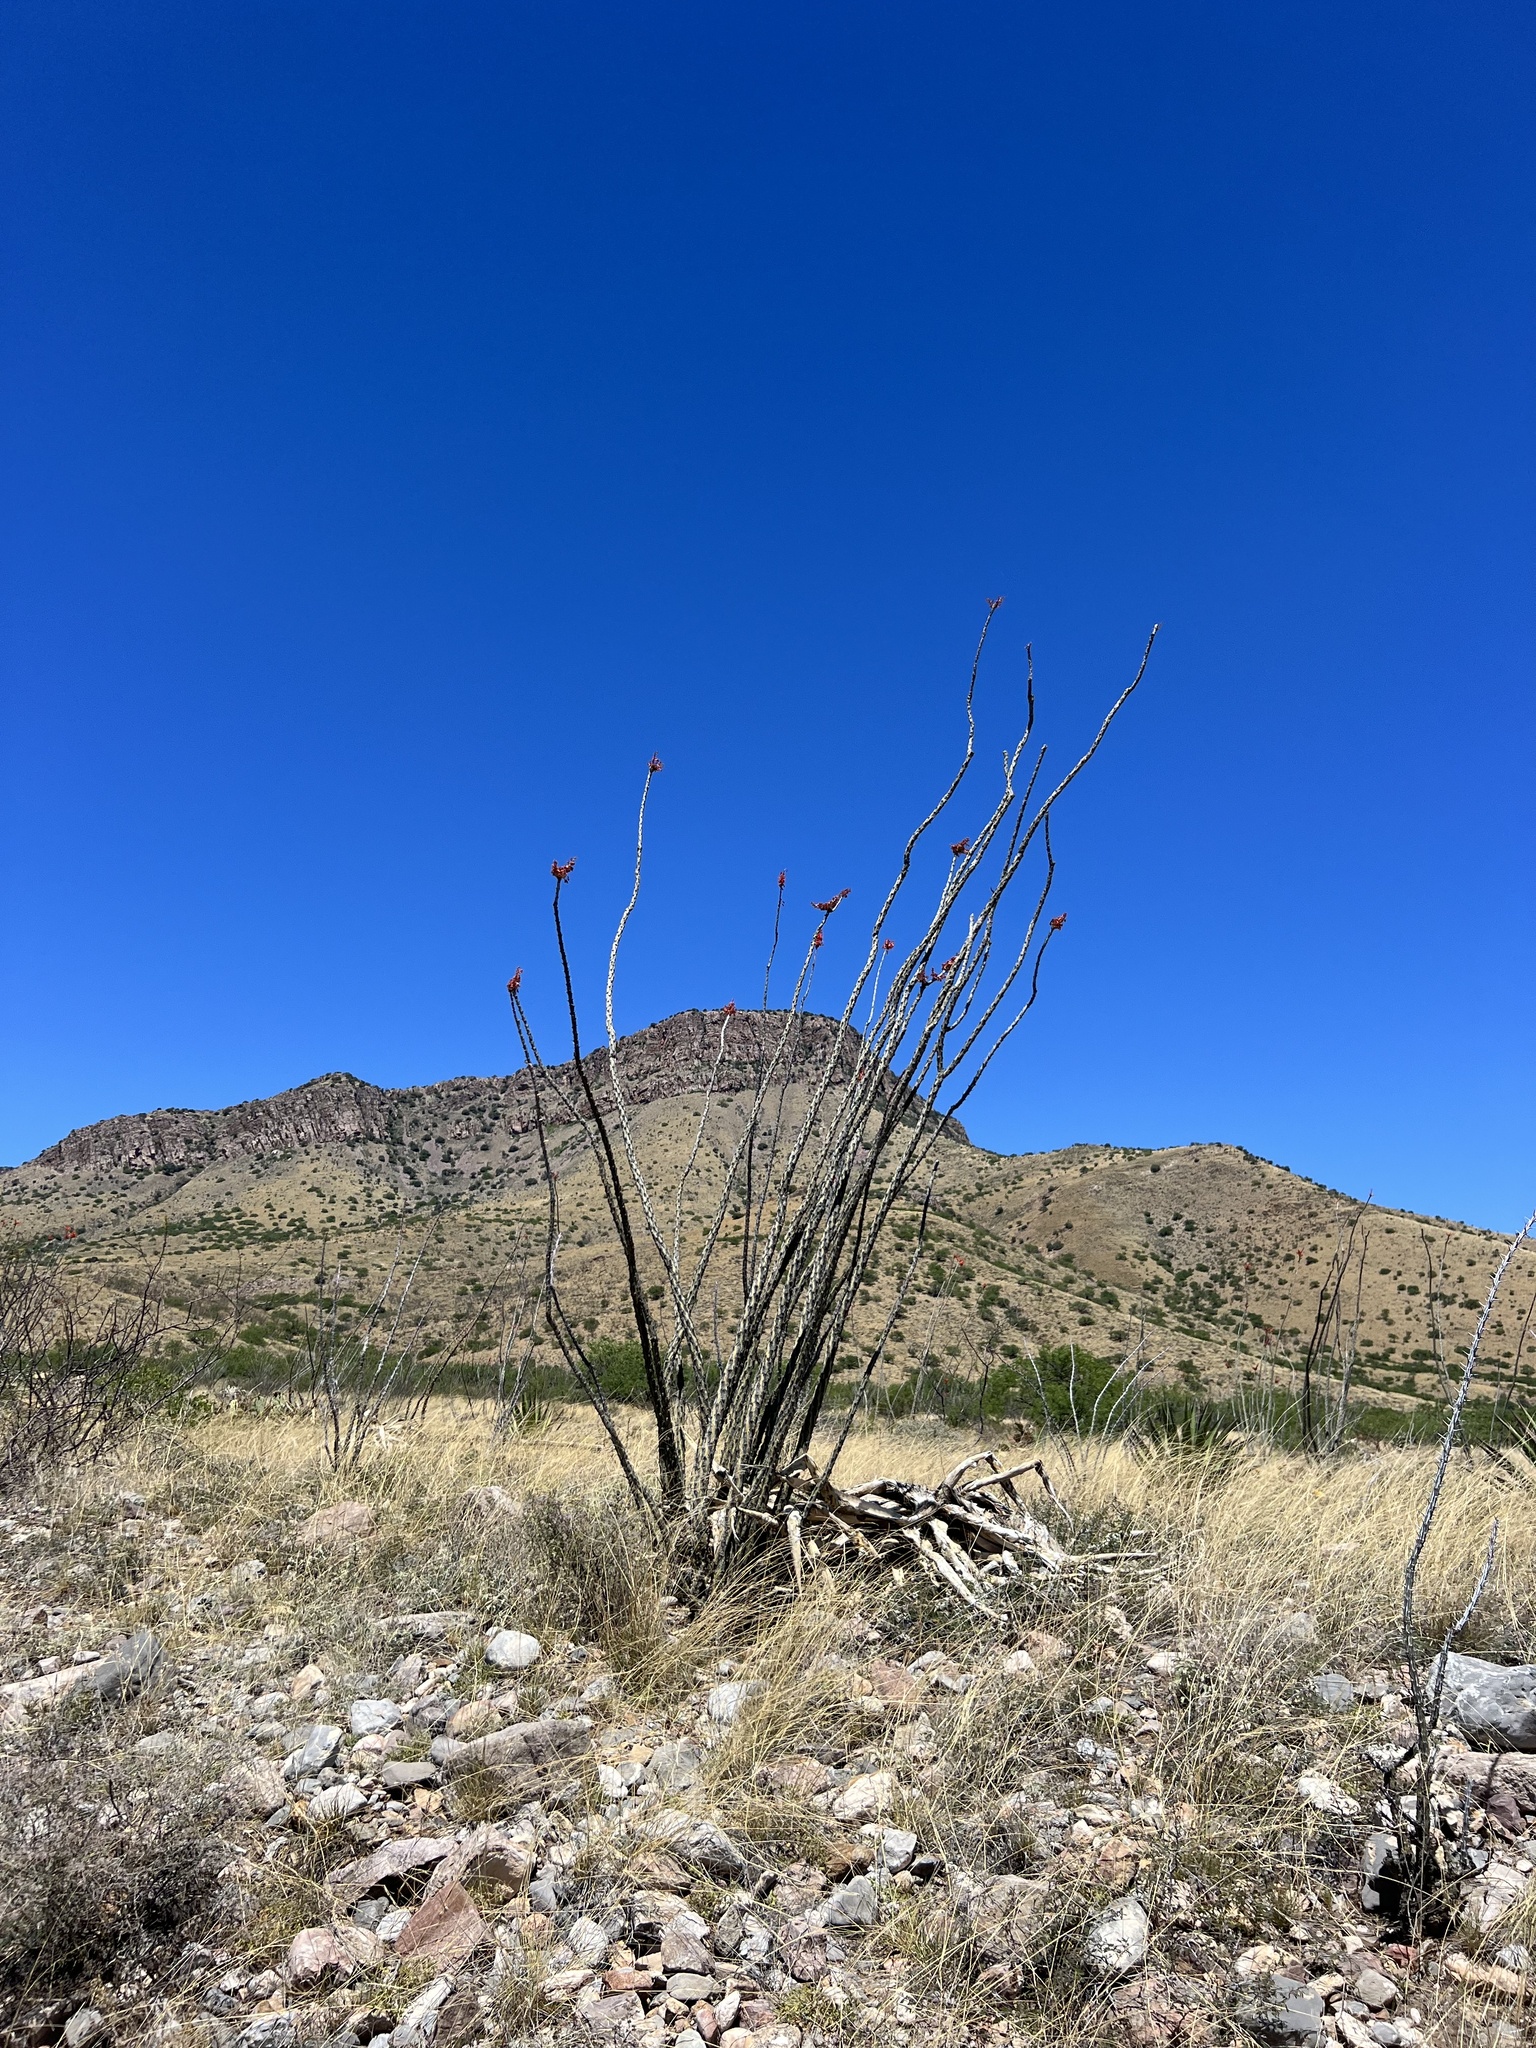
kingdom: Plantae
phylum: Tracheophyta
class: Magnoliopsida
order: Ericales
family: Fouquieriaceae
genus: Fouquieria
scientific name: Fouquieria splendens
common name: Vine-cactus
